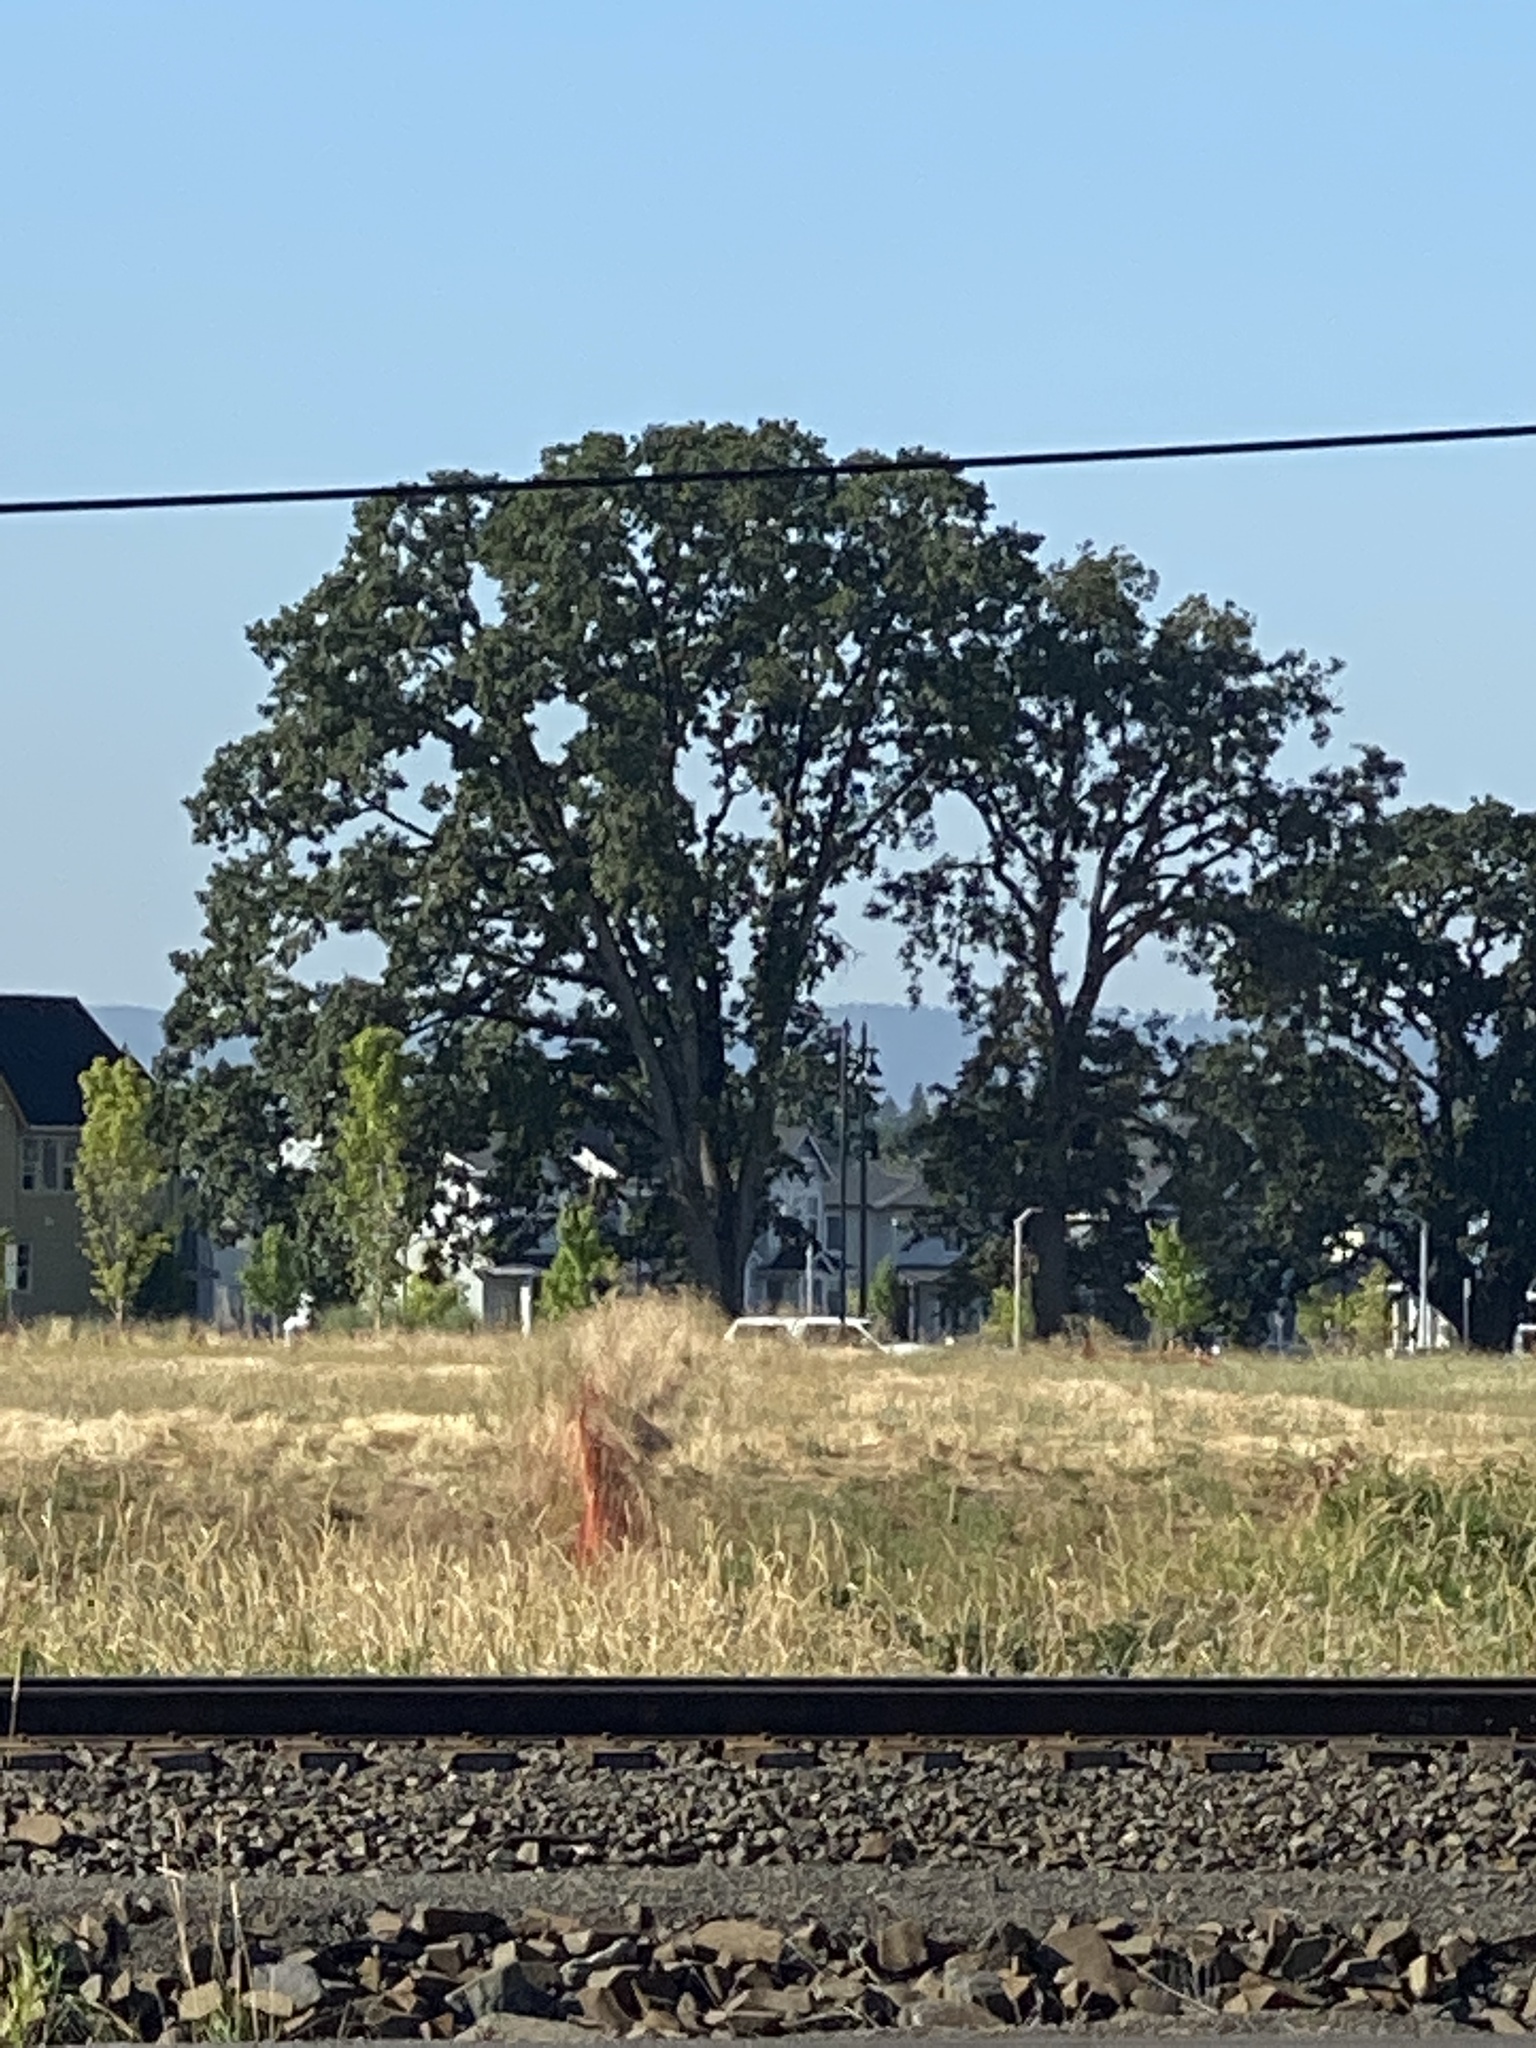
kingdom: Plantae
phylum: Tracheophyta
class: Magnoliopsida
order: Fagales
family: Fagaceae
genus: Quercus
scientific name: Quercus garryana
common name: Garry oak
